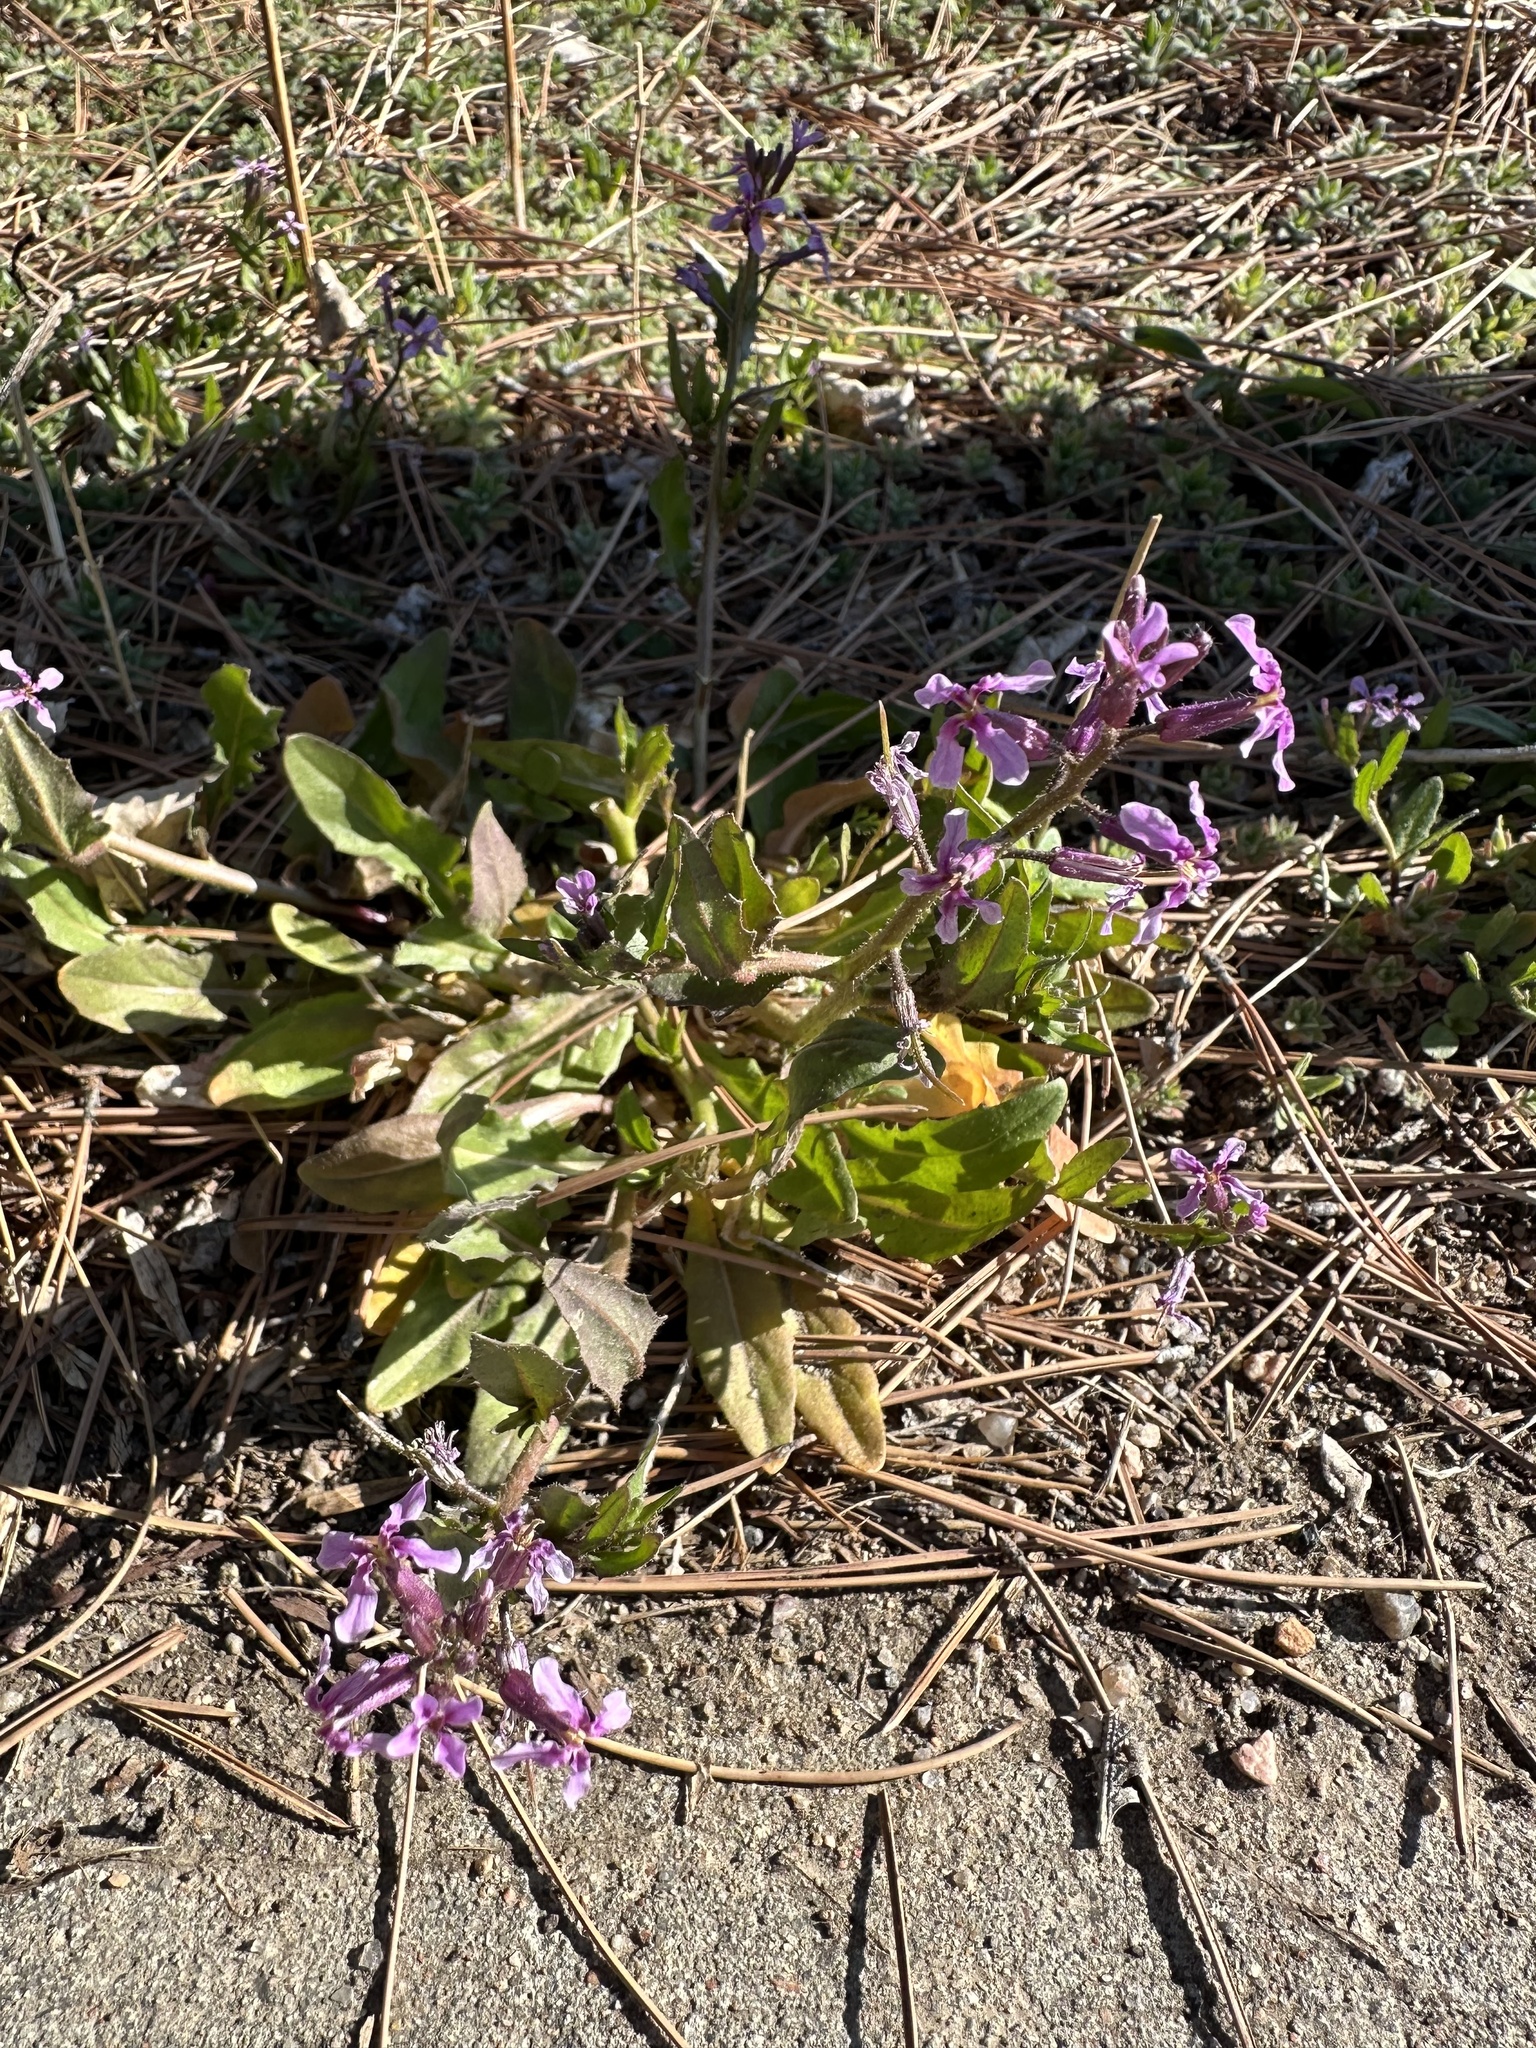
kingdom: Plantae
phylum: Tracheophyta
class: Magnoliopsida
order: Brassicales
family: Brassicaceae
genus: Chorispora
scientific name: Chorispora tenella
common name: Crossflower
